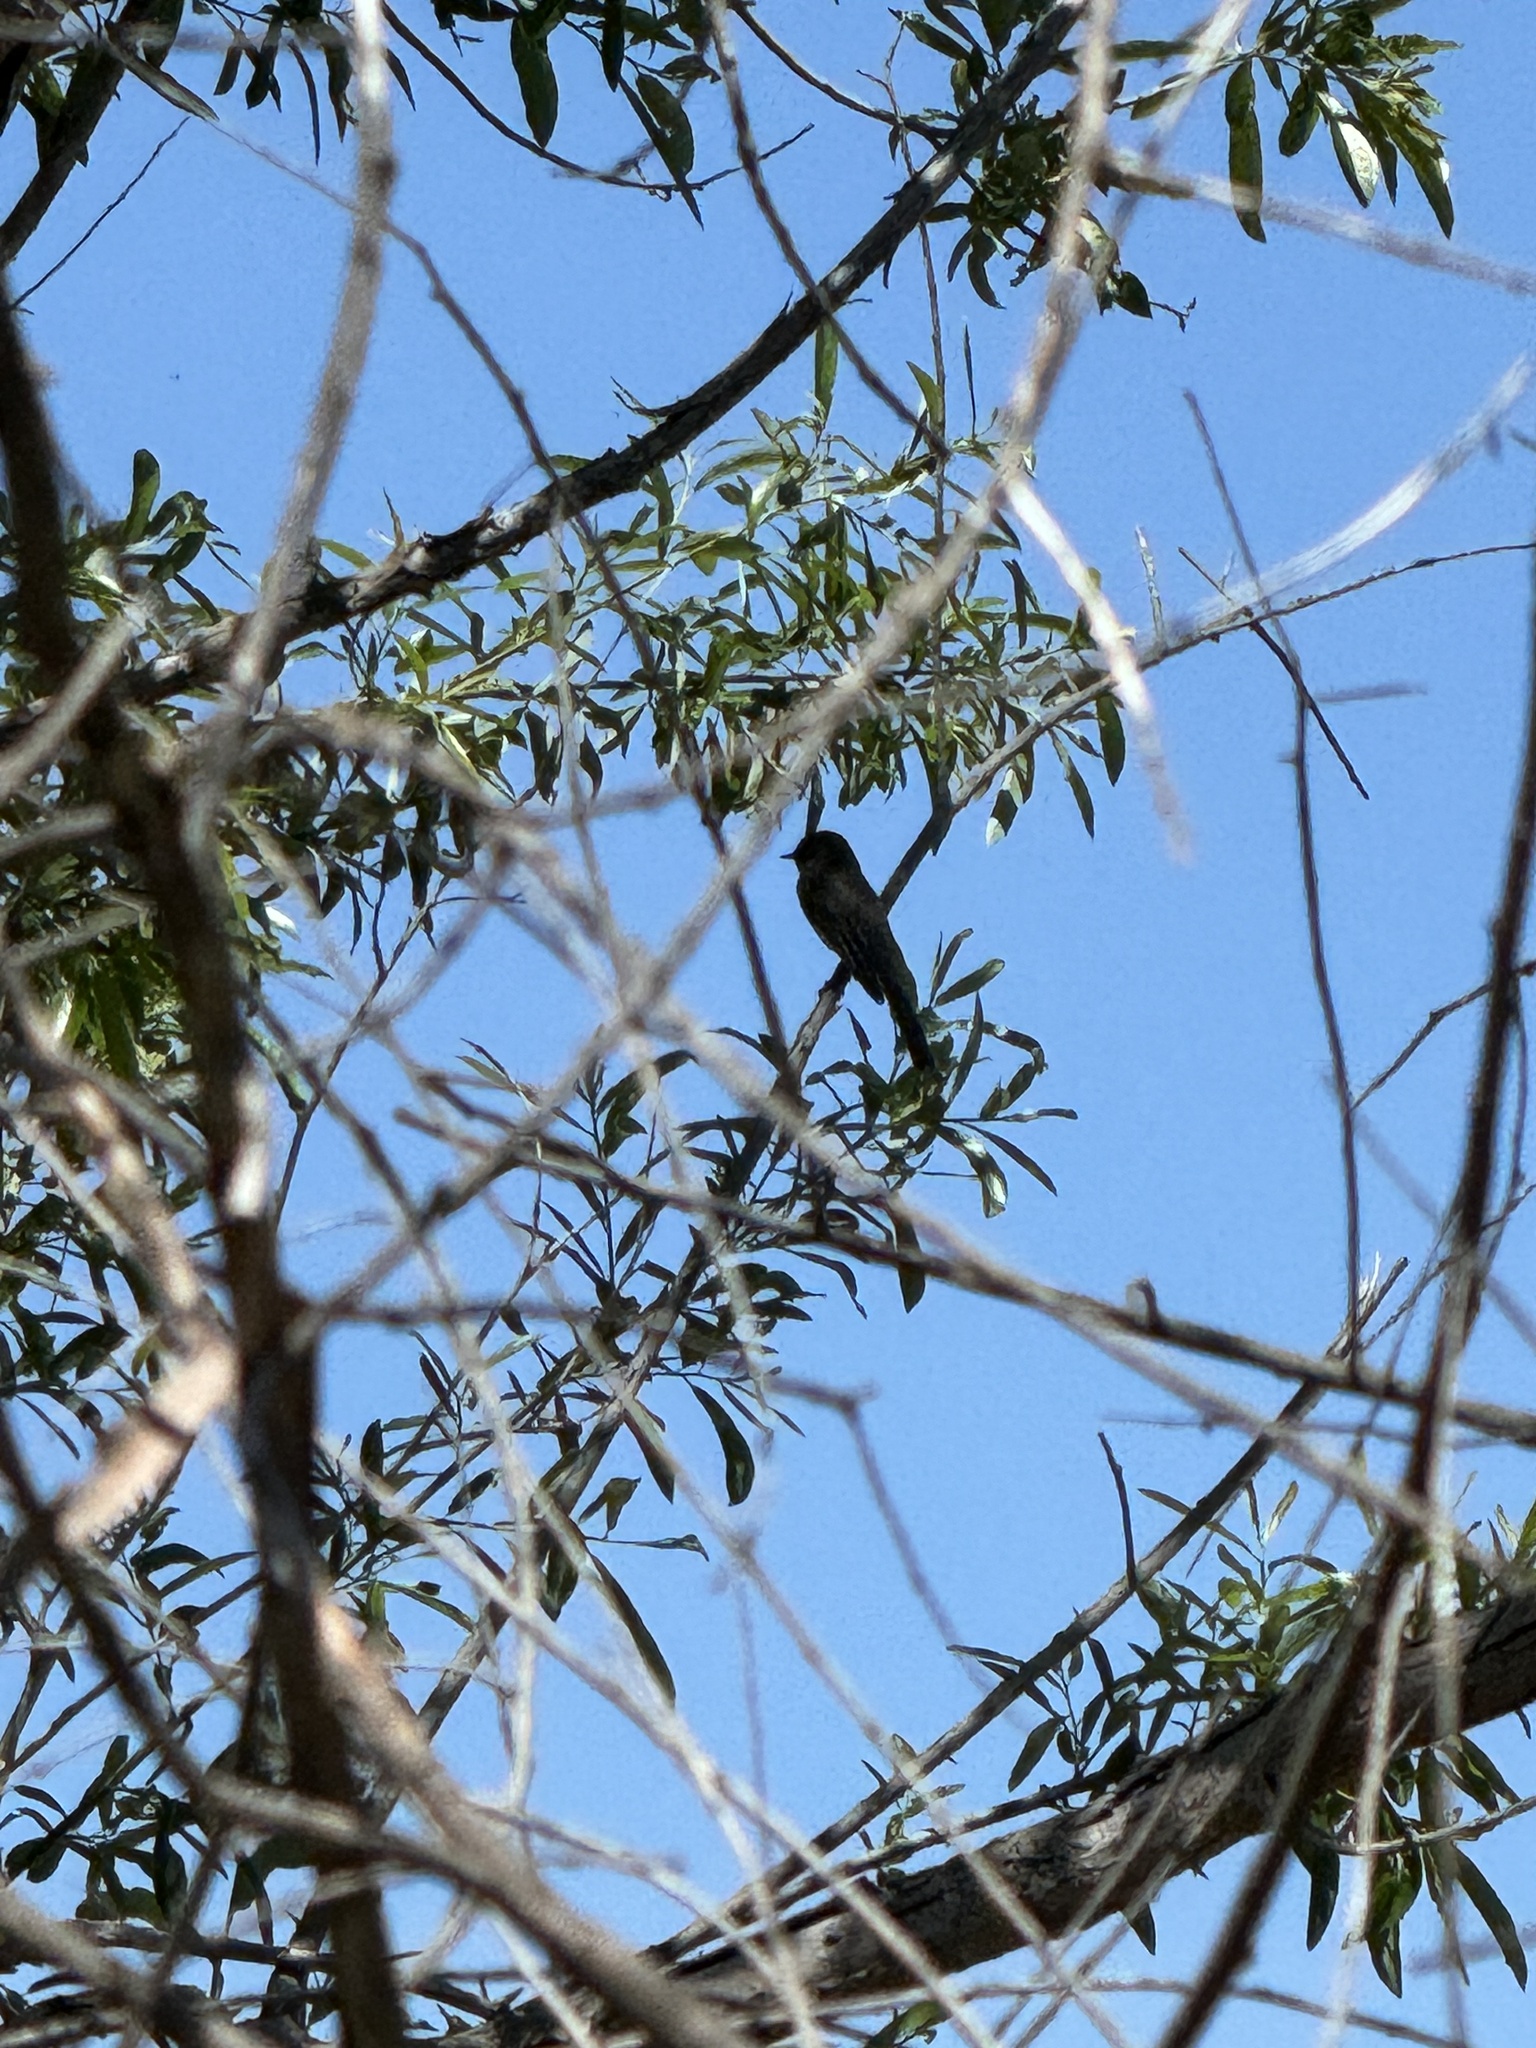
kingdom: Animalia
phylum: Chordata
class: Aves
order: Passeriformes
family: Tyrannidae
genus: Sayornis
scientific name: Sayornis nigricans
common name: Black phoebe
